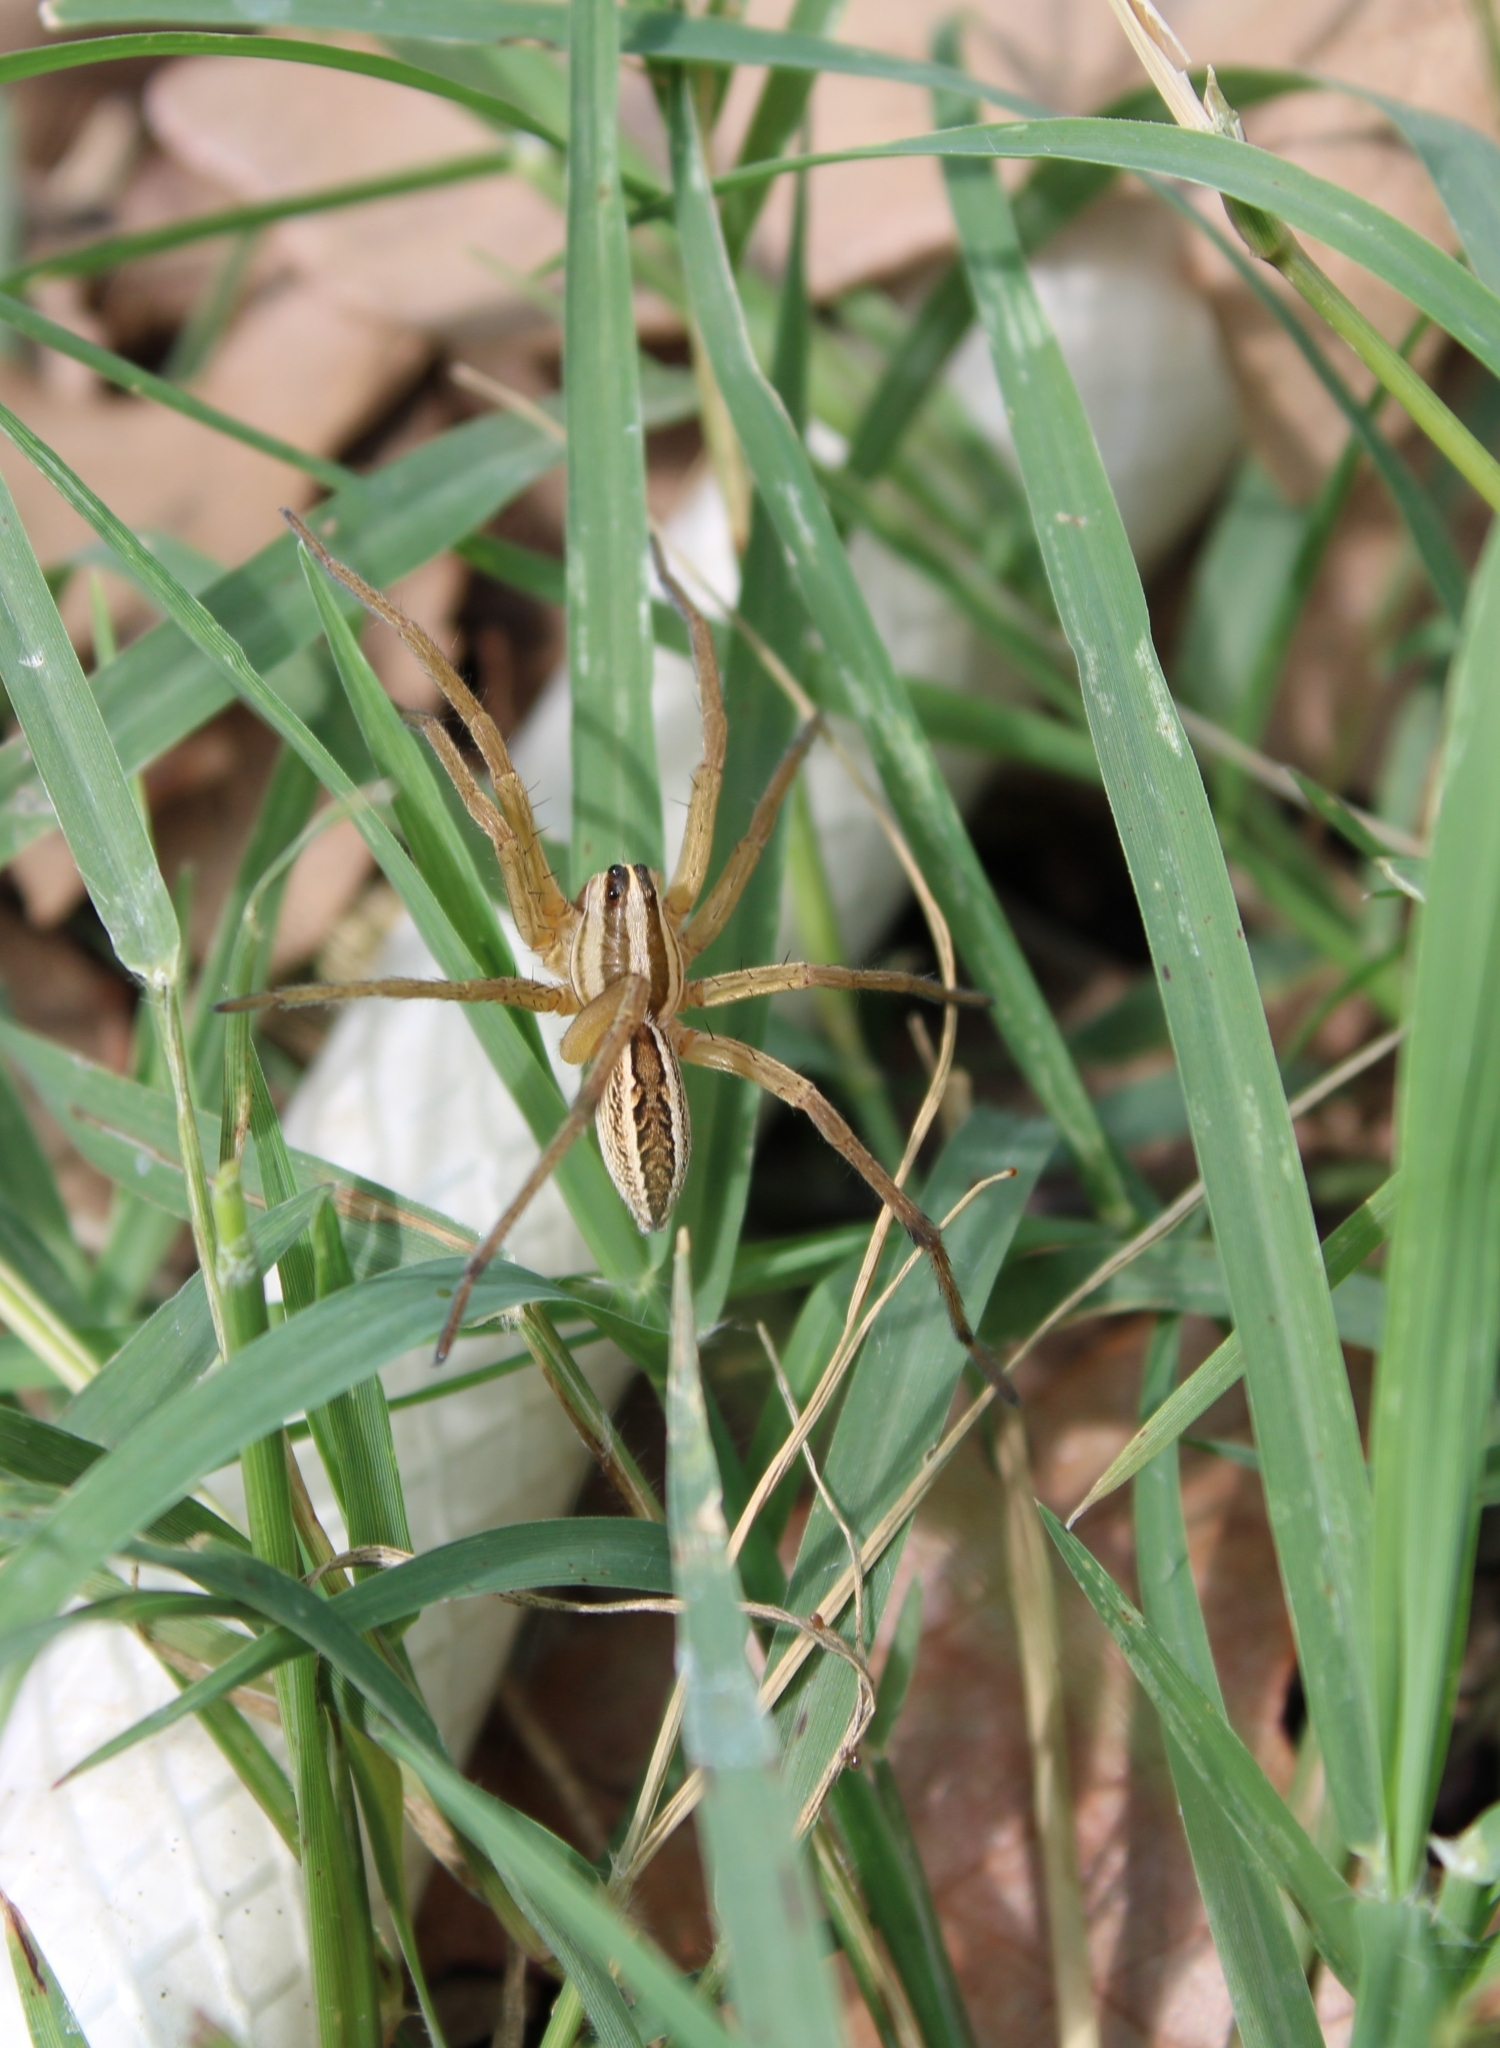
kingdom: Animalia
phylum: Arthropoda
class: Arachnida
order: Araneae
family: Lycosidae
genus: Rabidosa
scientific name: Rabidosa rabida
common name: Rabid wolf spider
